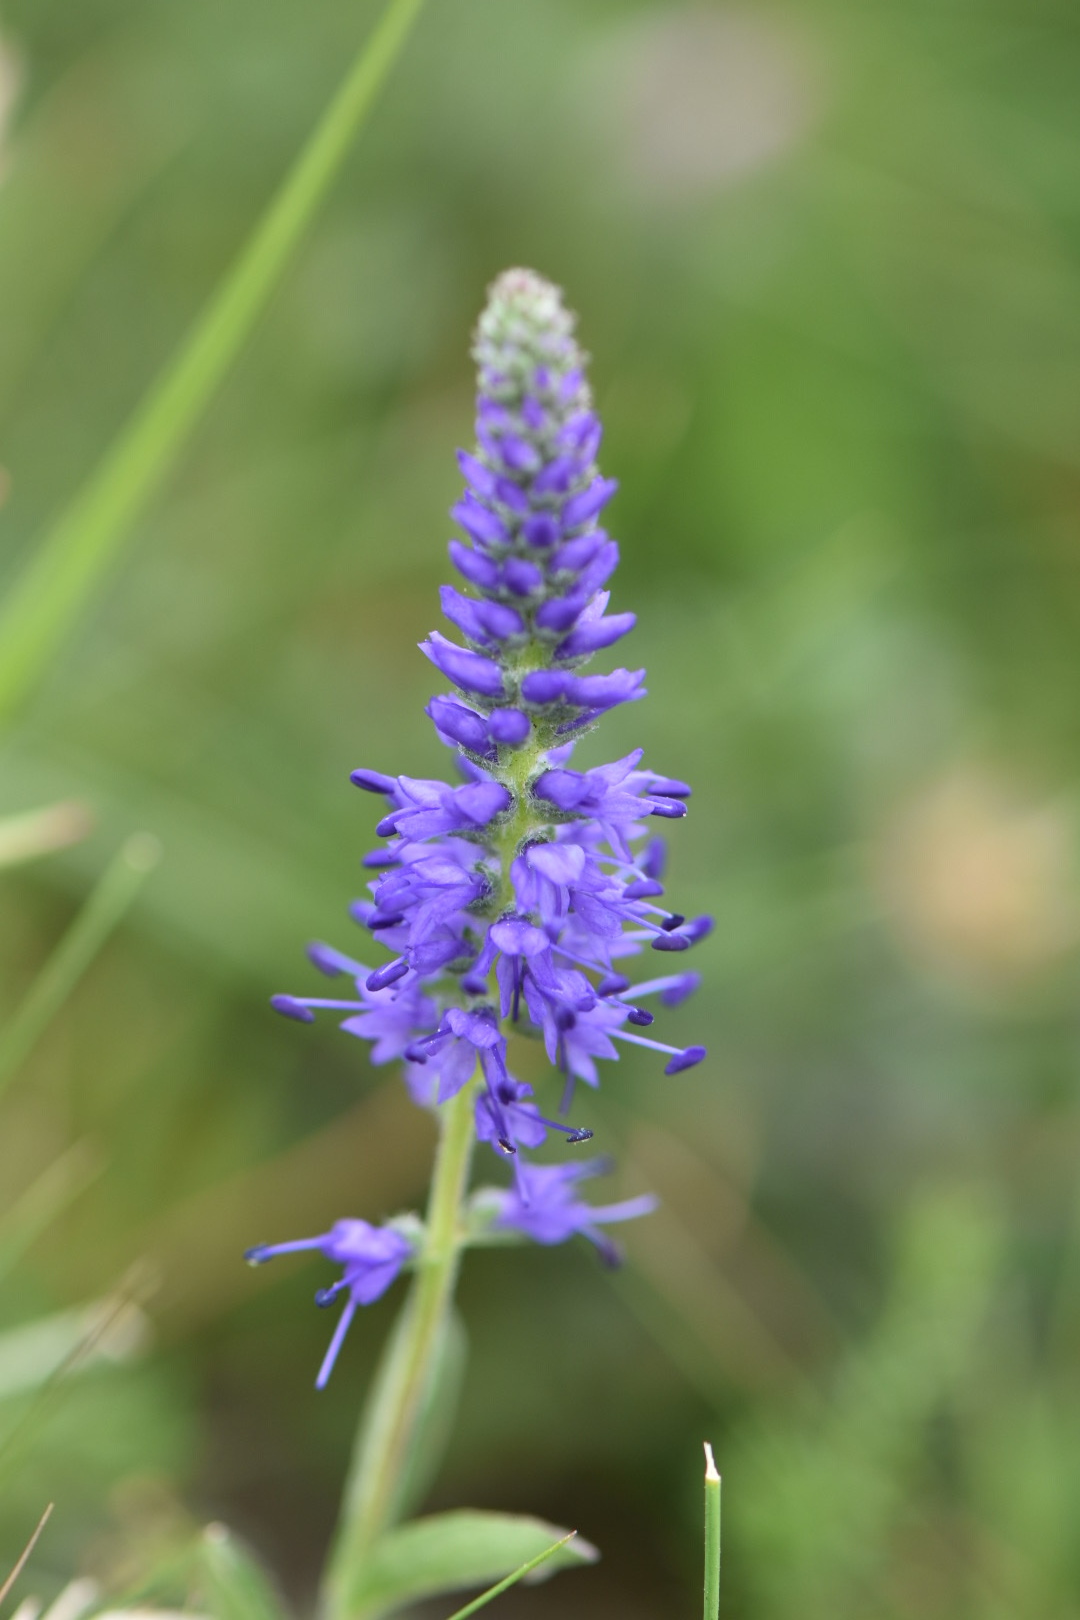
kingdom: Plantae
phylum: Tracheophyta
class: Magnoliopsida
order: Lamiales
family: Plantaginaceae
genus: Veronica
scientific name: Veronica spicata
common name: Spiked speedwell
